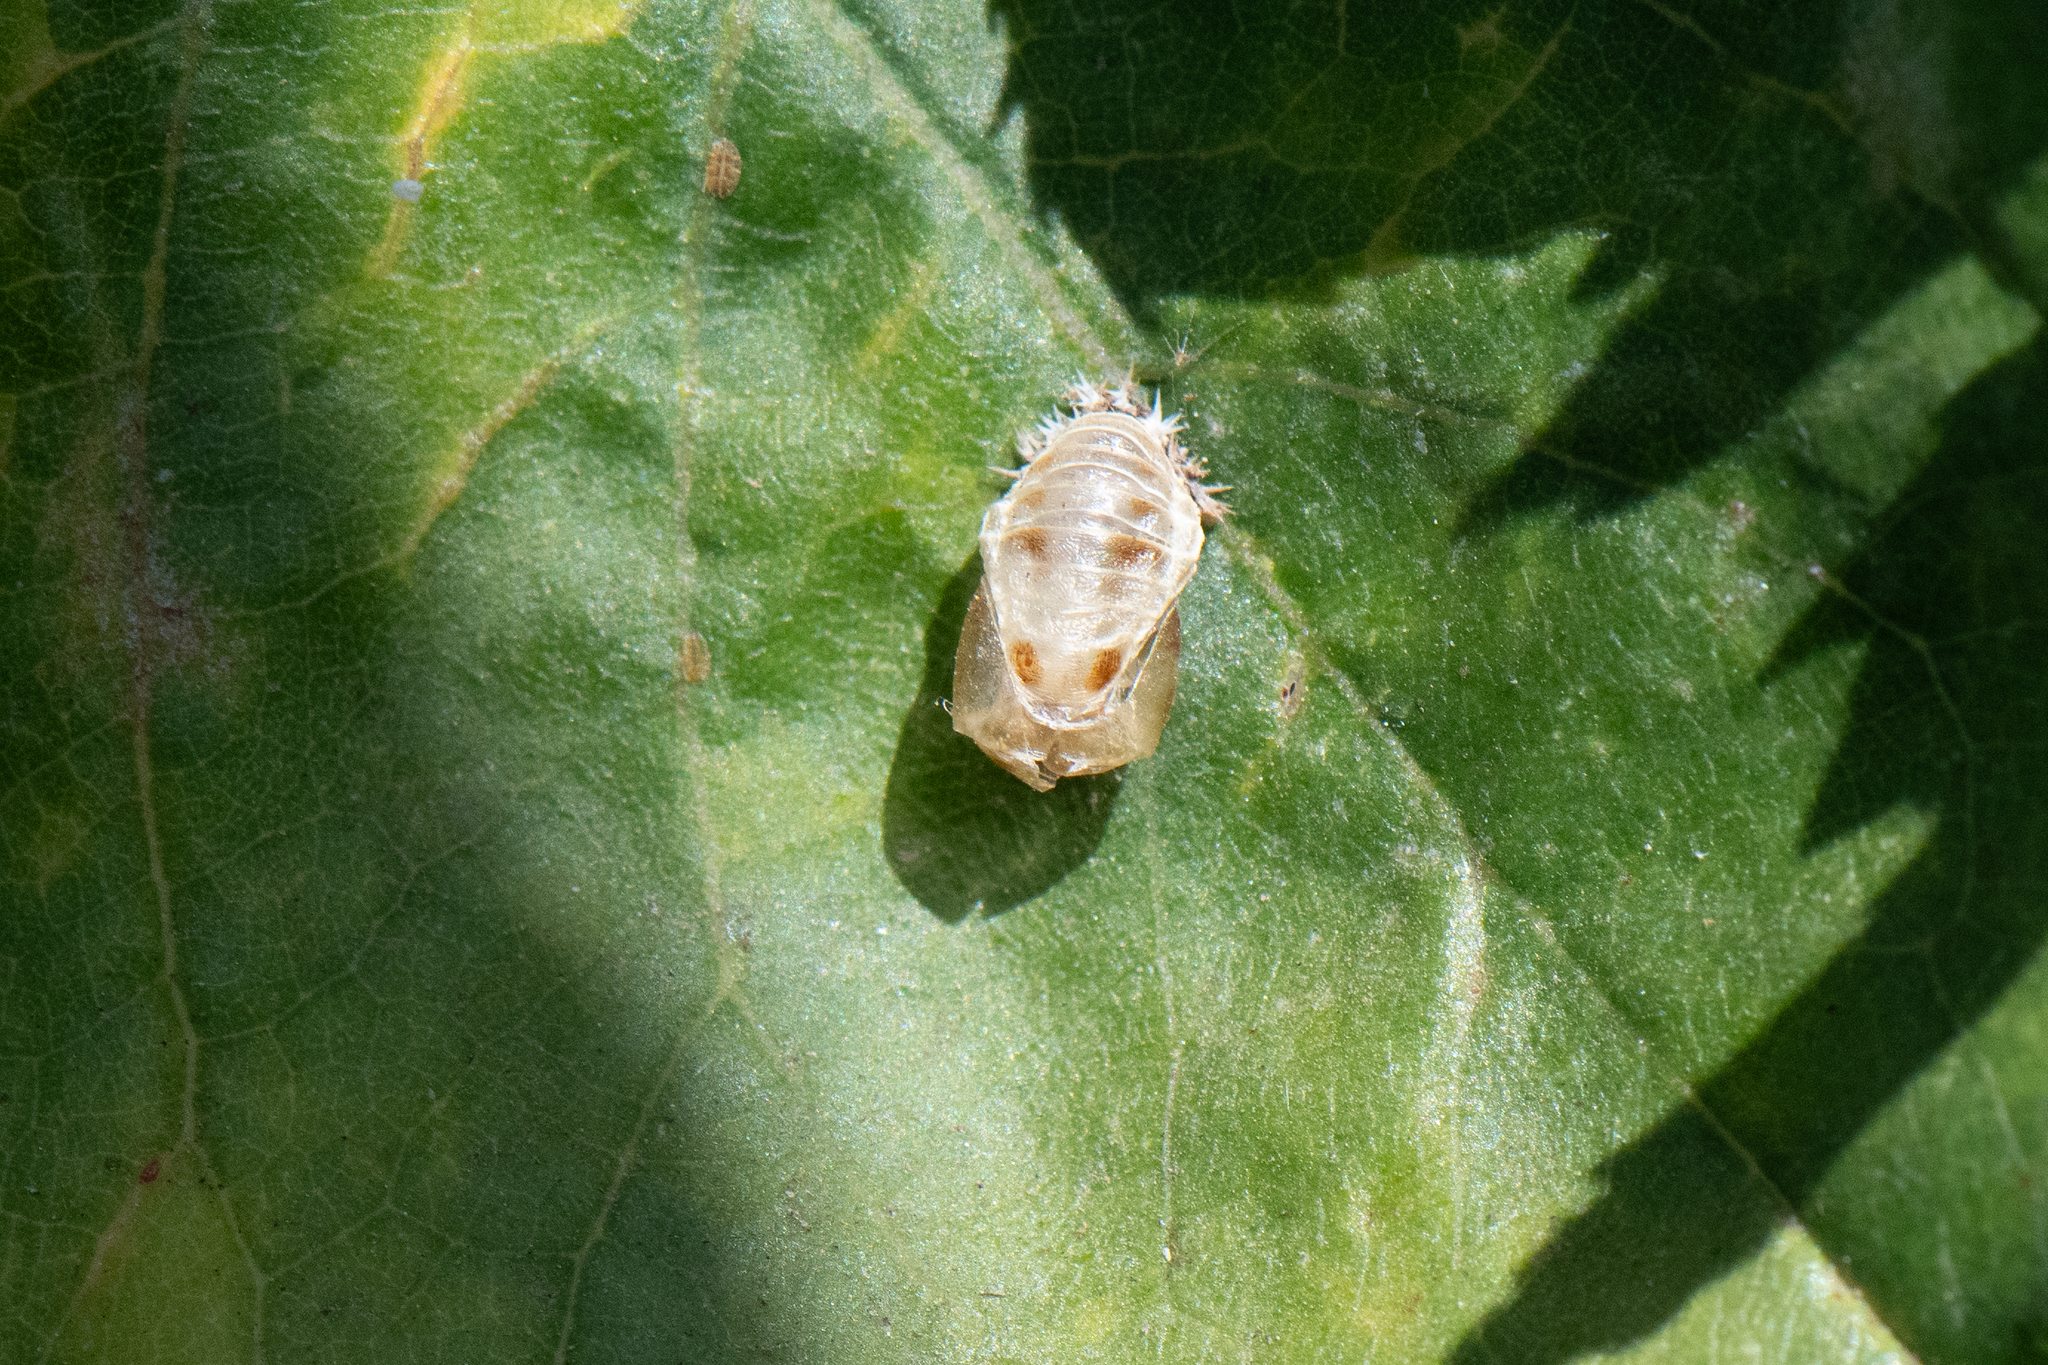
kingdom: Animalia
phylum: Arthropoda
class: Insecta
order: Coleoptera
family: Coccinellidae
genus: Harmonia
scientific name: Harmonia axyridis
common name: Harlequin ladybird
